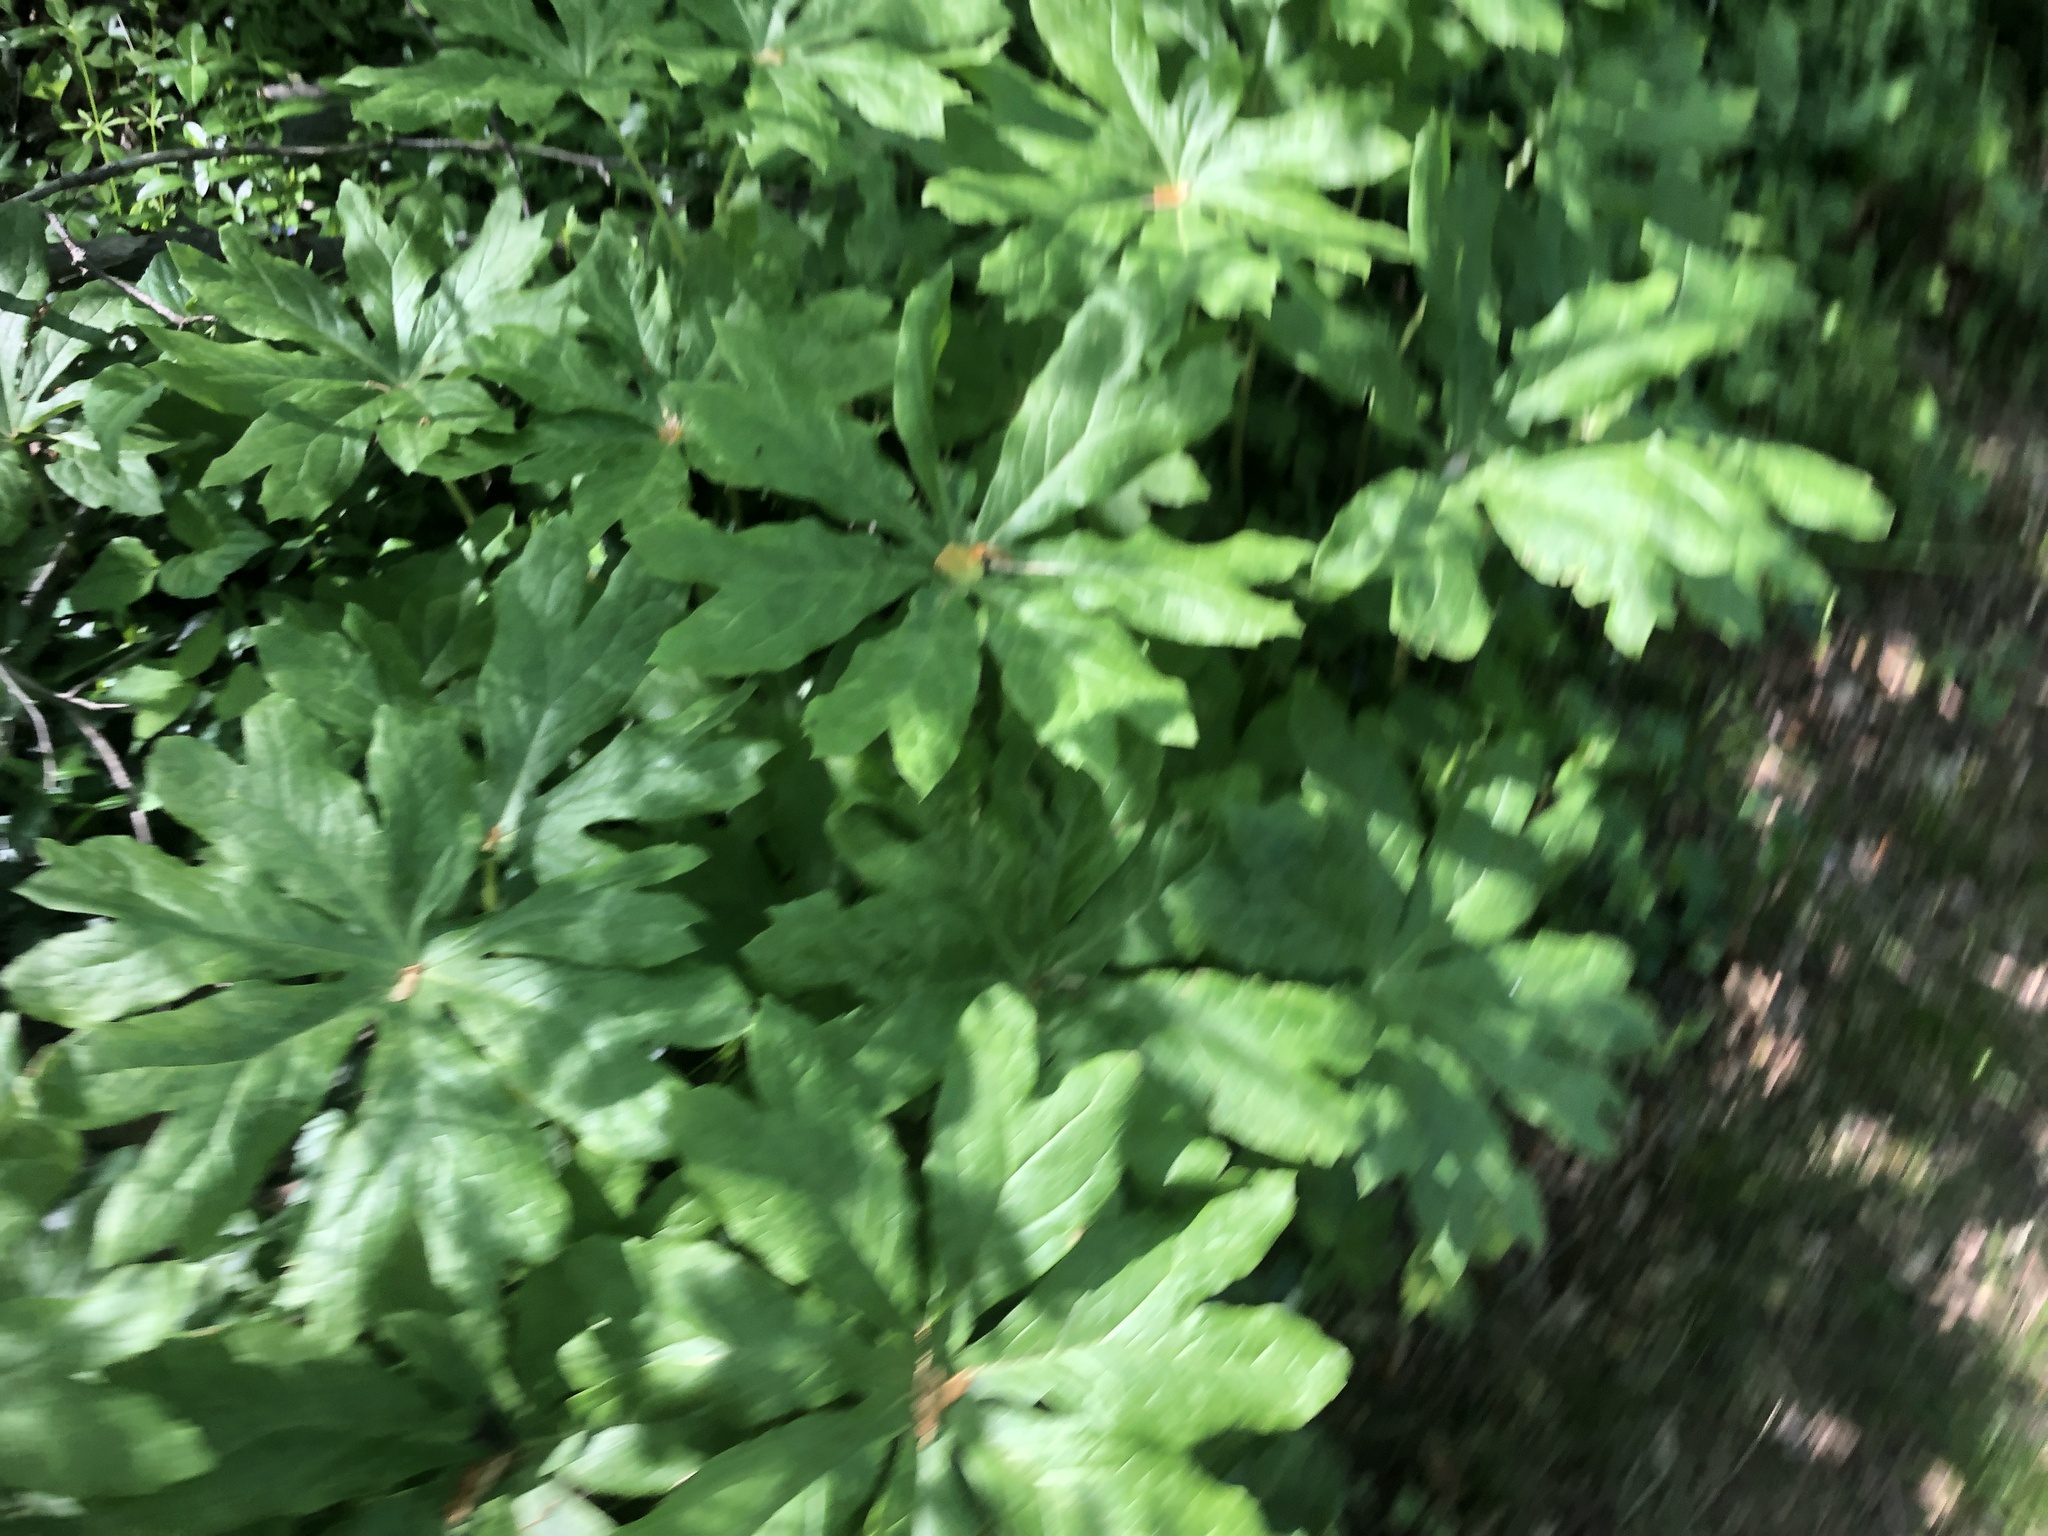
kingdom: Plantae
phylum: Tracheophyta
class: Magnoliopsida
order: Ranunculales
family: Berberidaceae
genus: Podophyllum
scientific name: Podophyllum peltatum
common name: Wild mandrake
